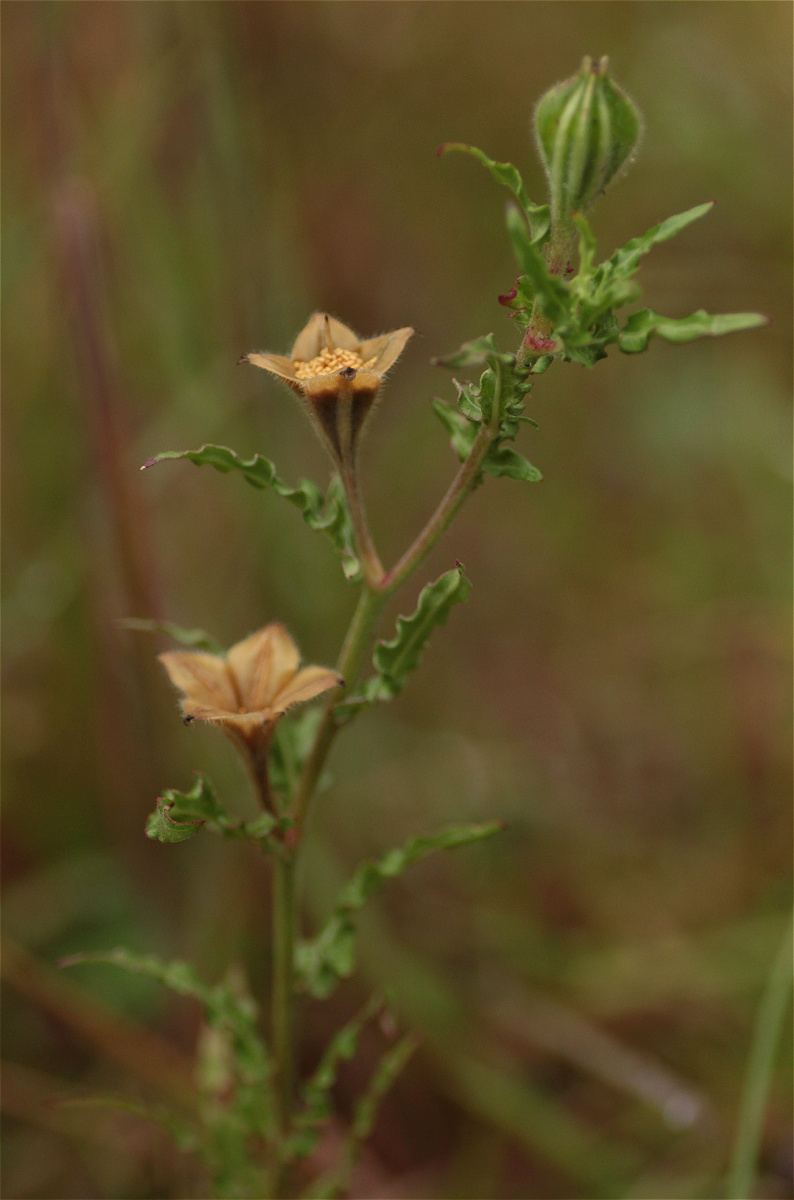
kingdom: Plantae
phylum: Tracheophyta
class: Magnoliopsida
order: Myrtales
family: Onagraceae
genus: Oenothera
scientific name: Oenothera tetraptera
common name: Four-wing evening-primrose
